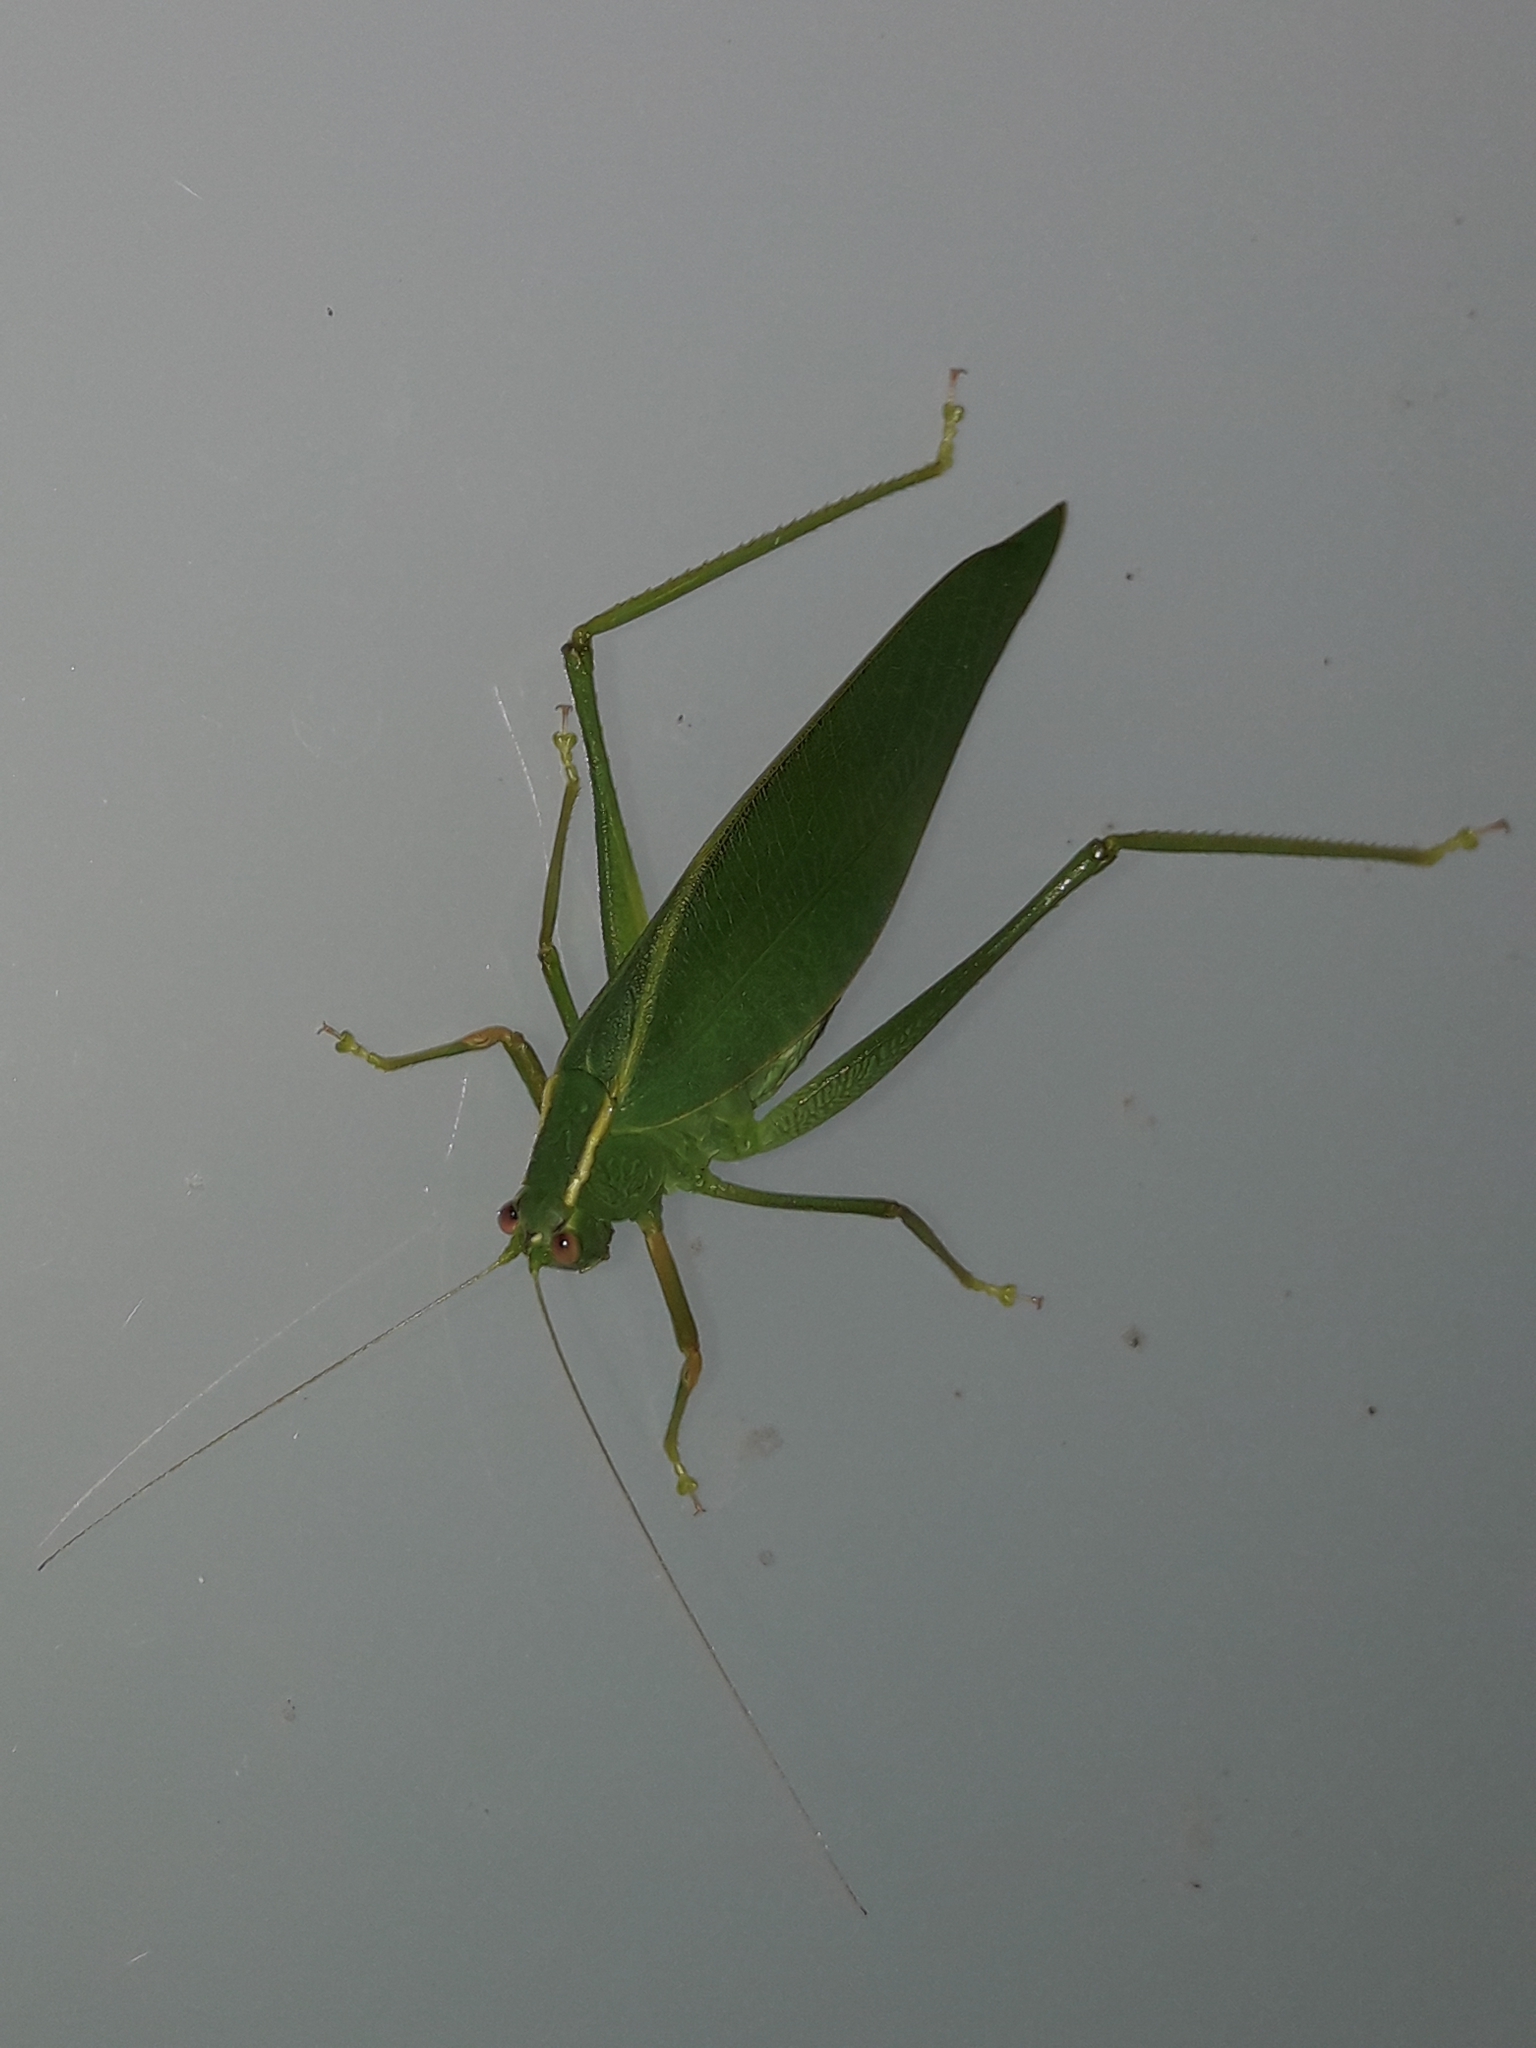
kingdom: Animalia
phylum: Arthropoda
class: Insecta
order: Orthoptera
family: Tettigoniidae
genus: Caedicia
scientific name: Caedicia simplex
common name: Common garden katydid
